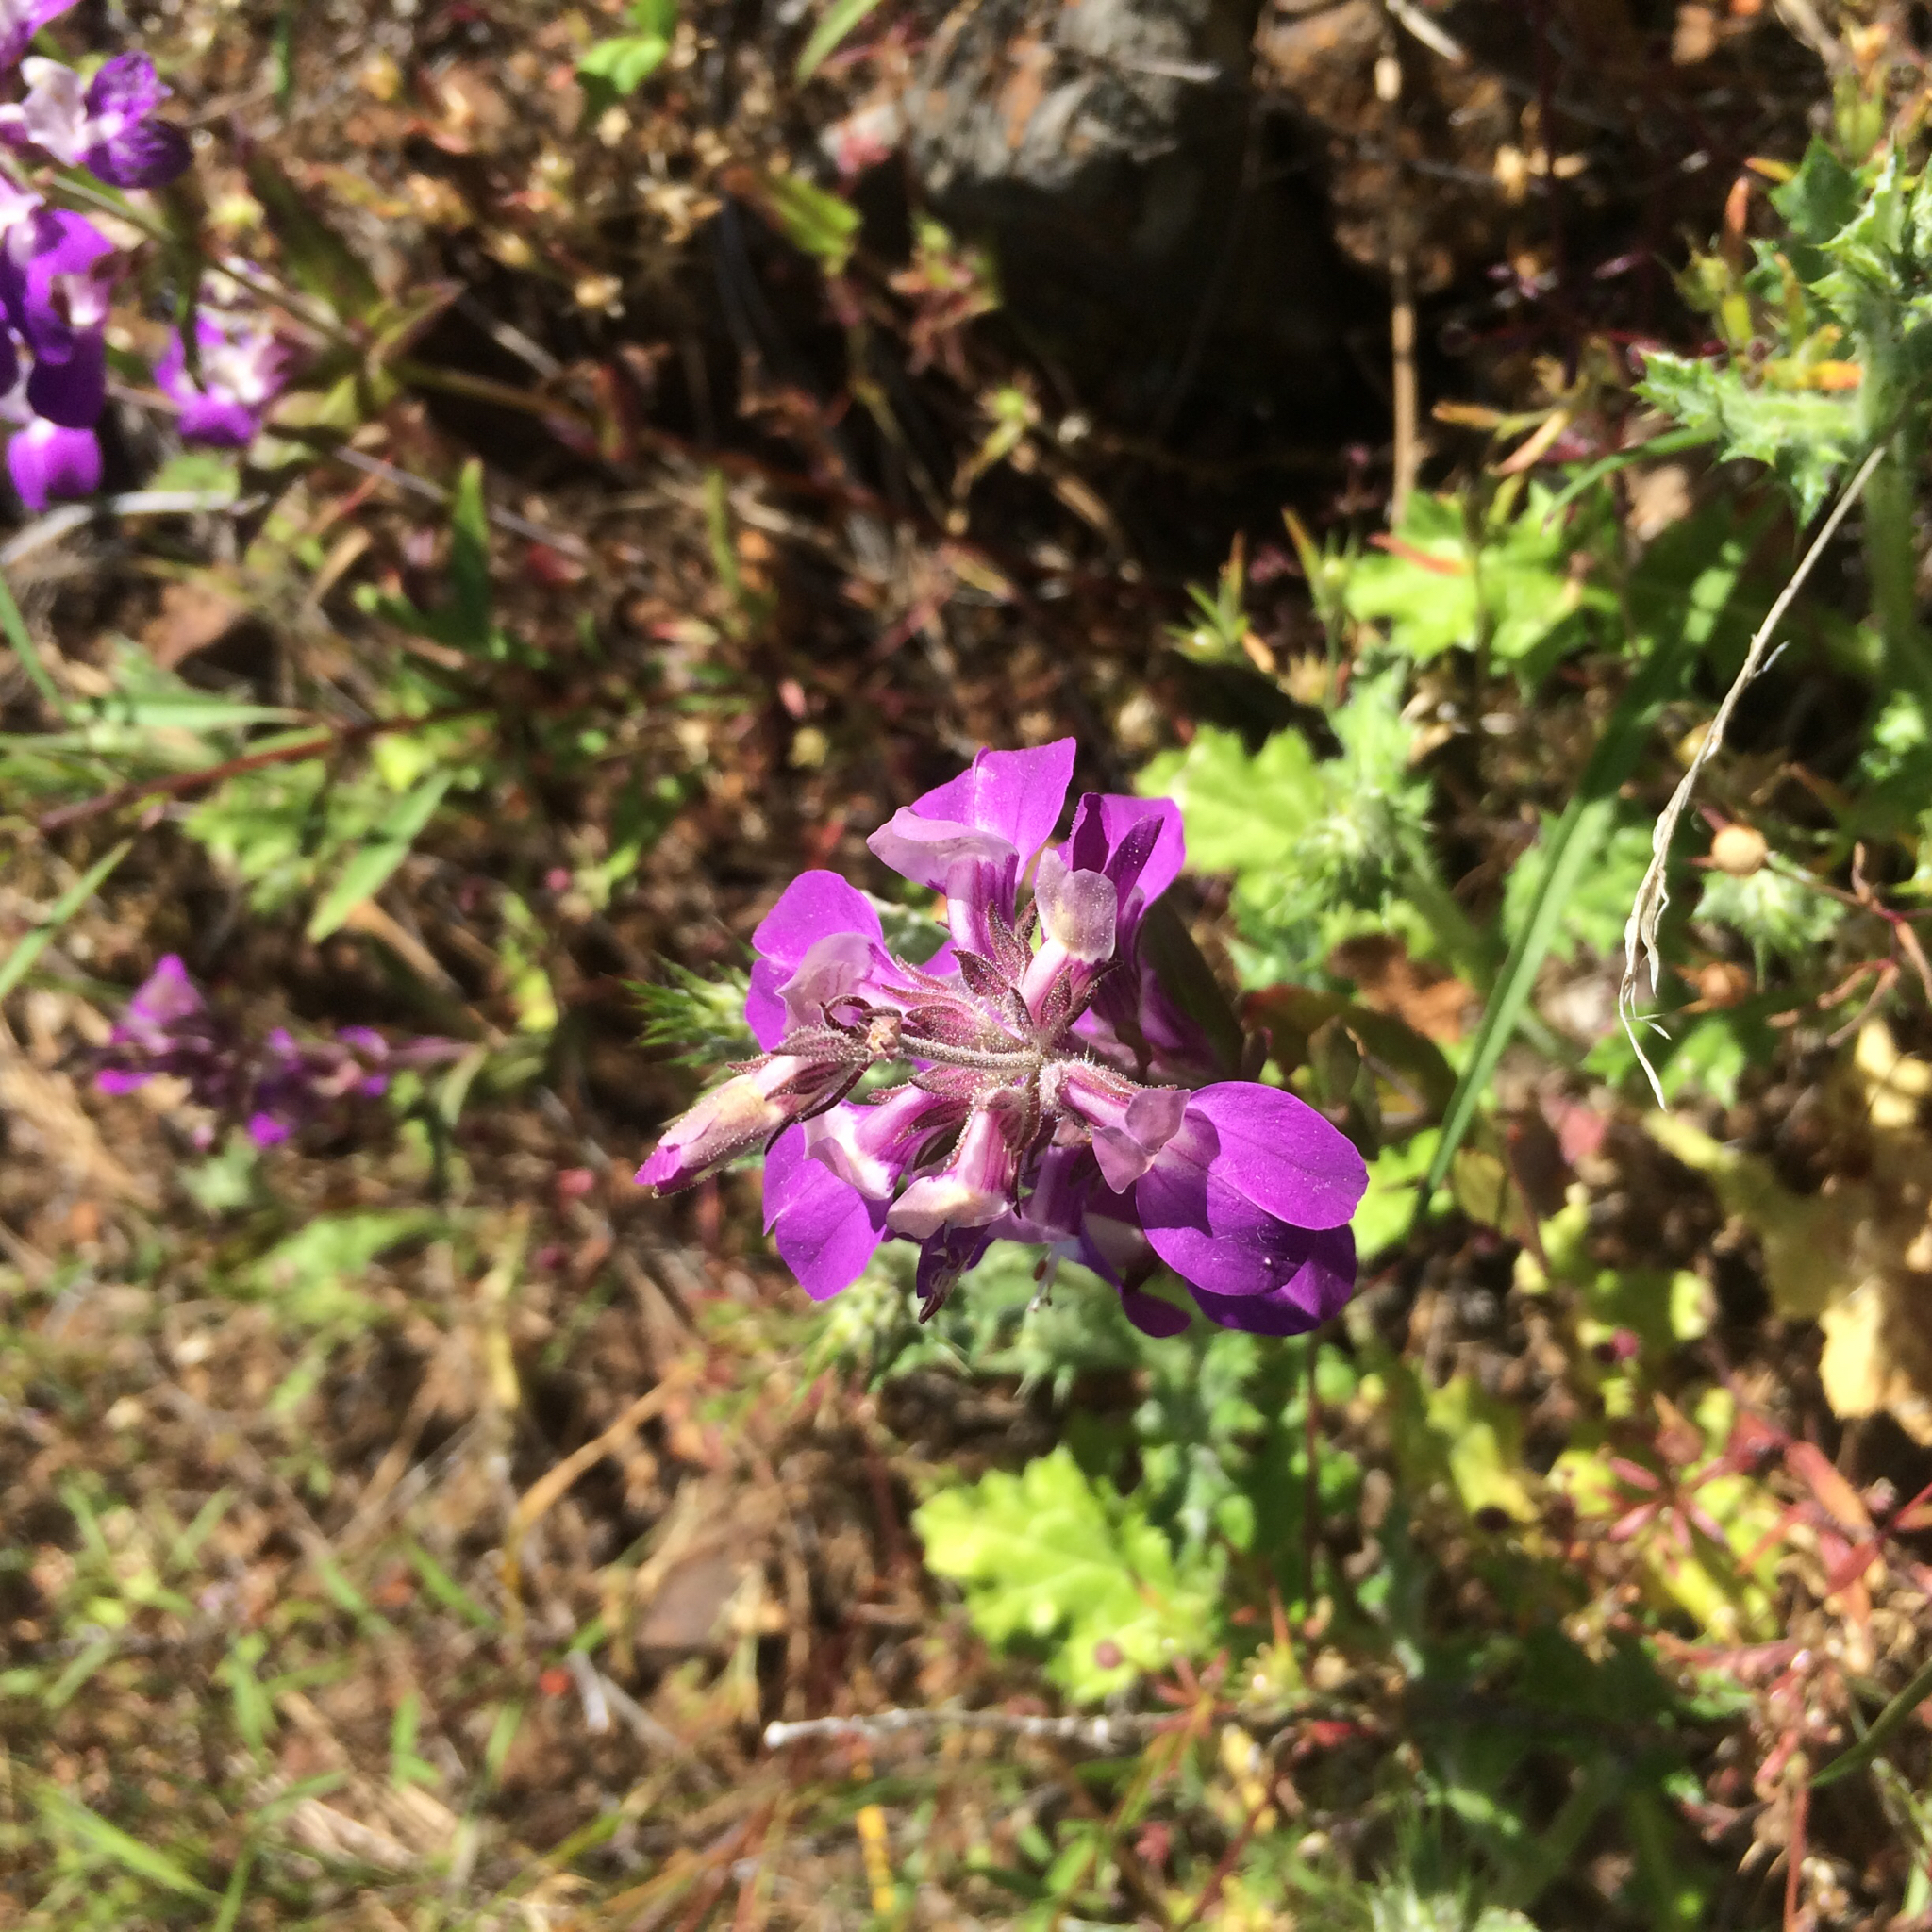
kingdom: Plantae
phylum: Tracheophyta
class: Magnoliopsida
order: Lamiales
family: Plantaginaceae
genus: Collinsia
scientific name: Collinsia heterophylla
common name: Chinese-houses
